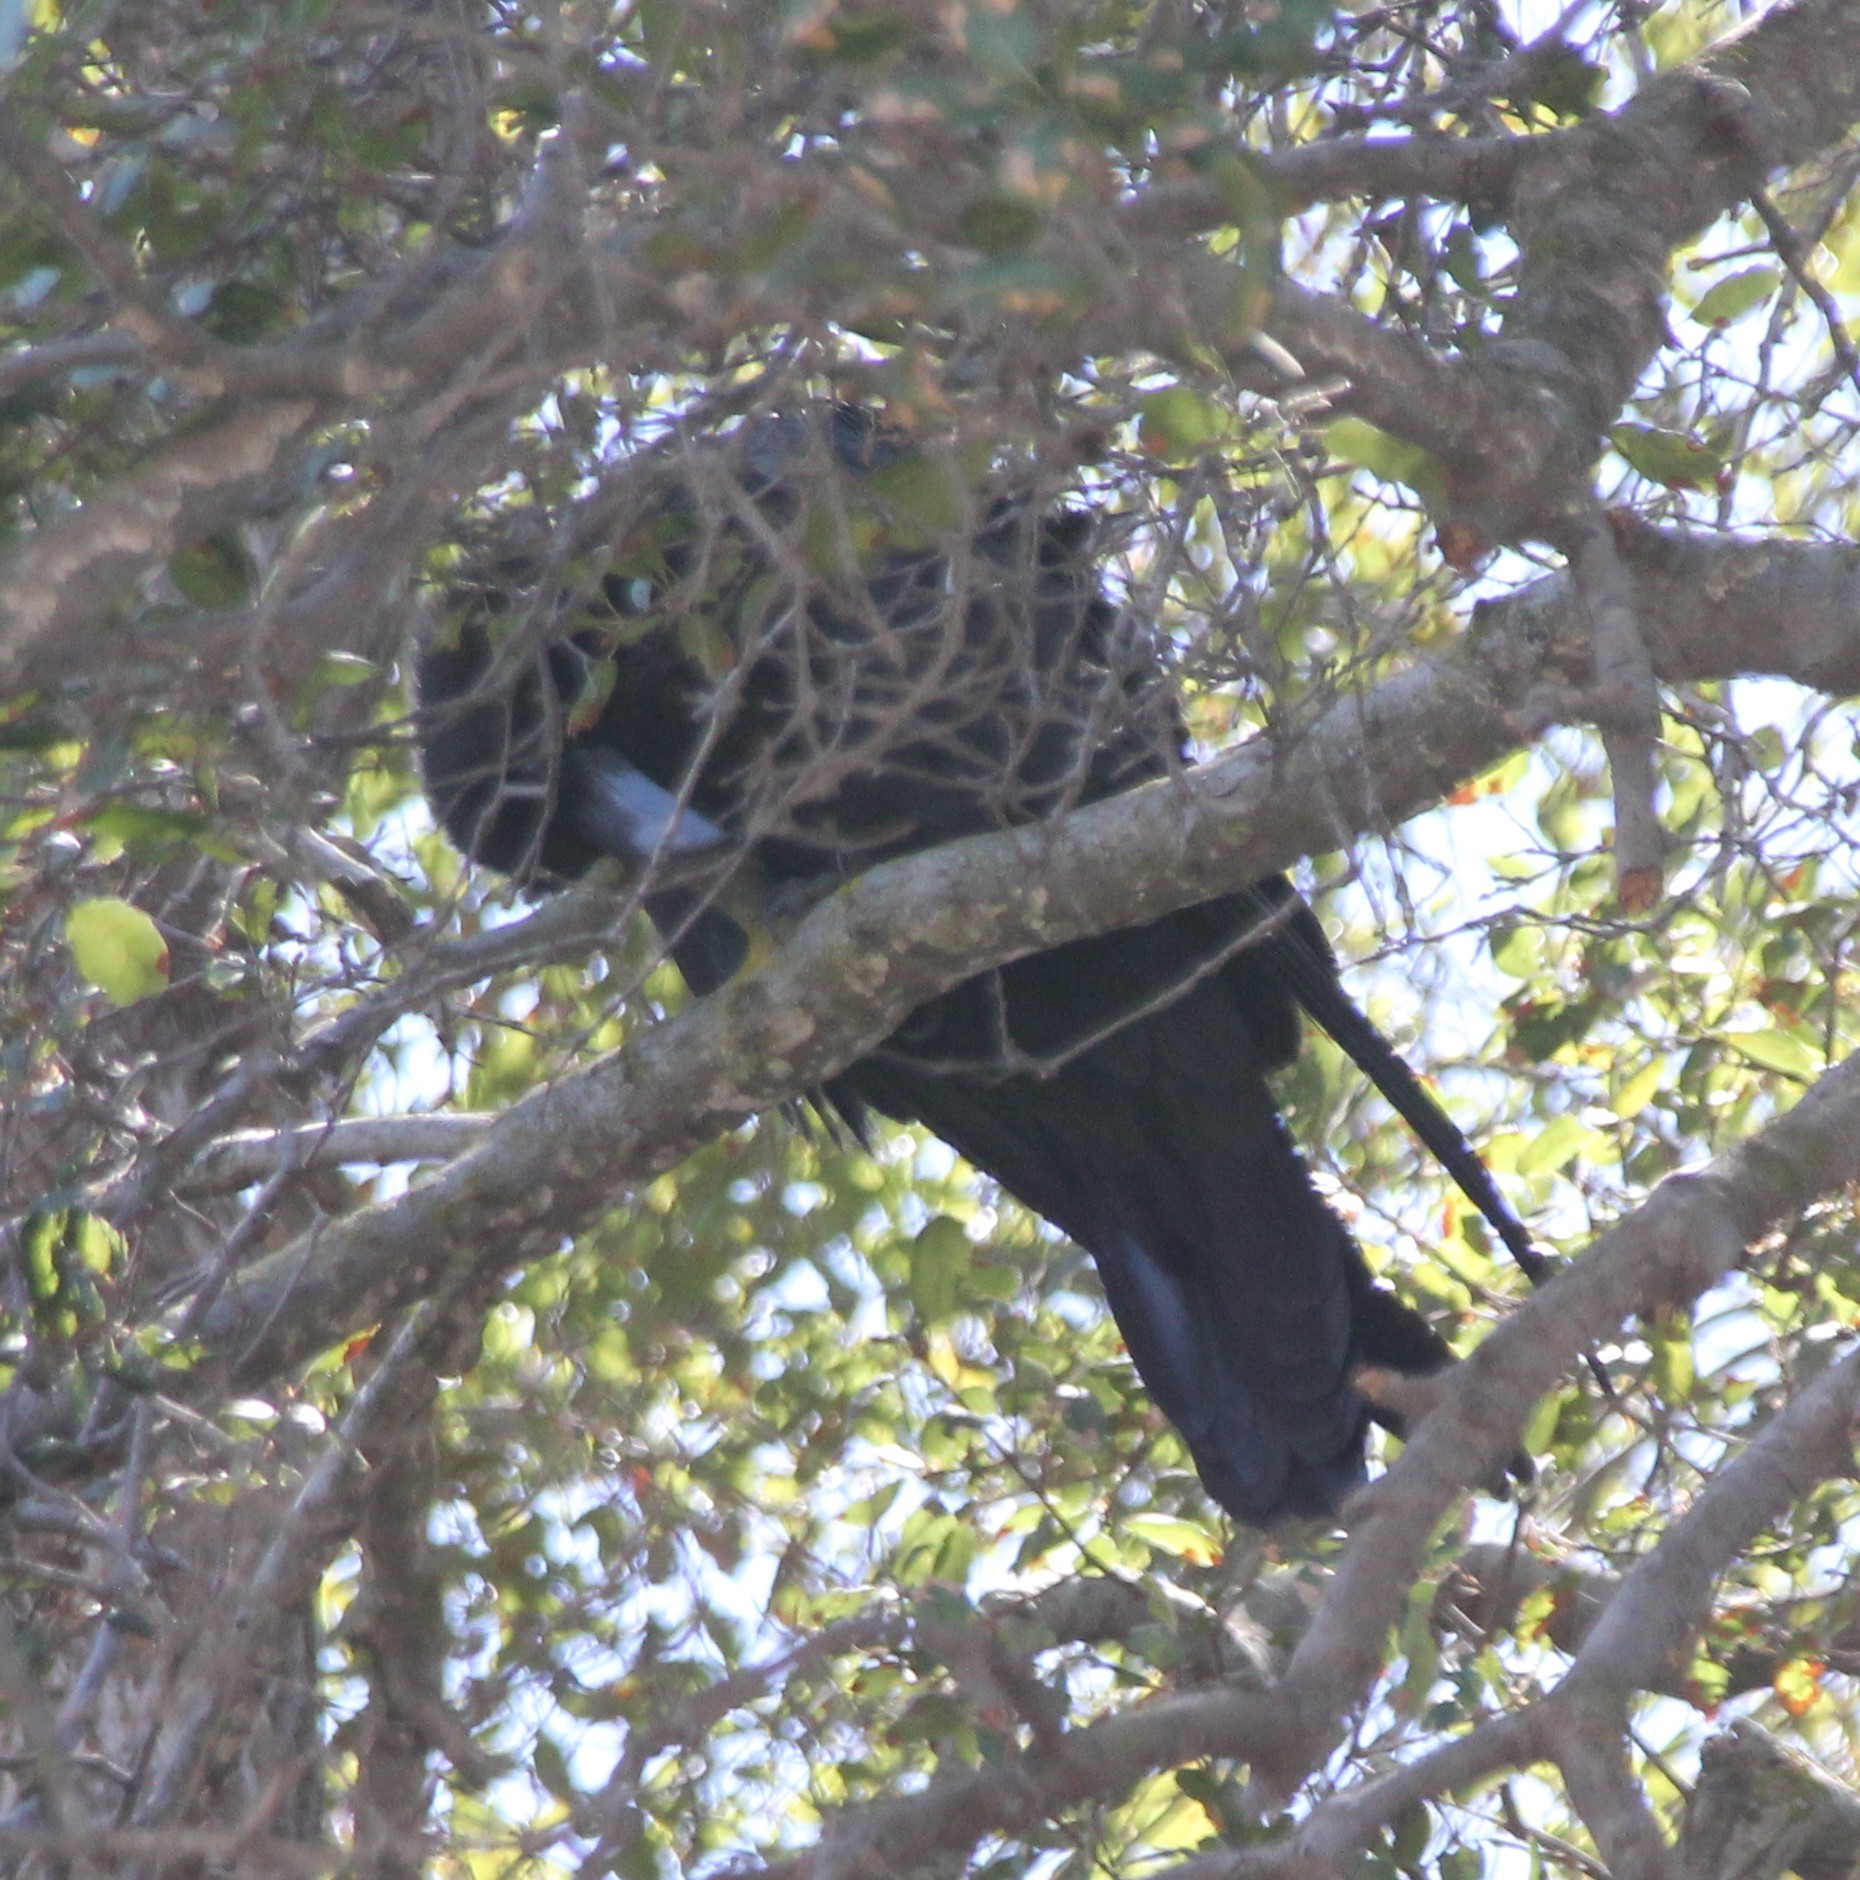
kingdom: Animalia
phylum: Chordata
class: Aves
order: Passeriformes
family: Corvidae
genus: Corvus
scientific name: Corvus corax
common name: Common raven
